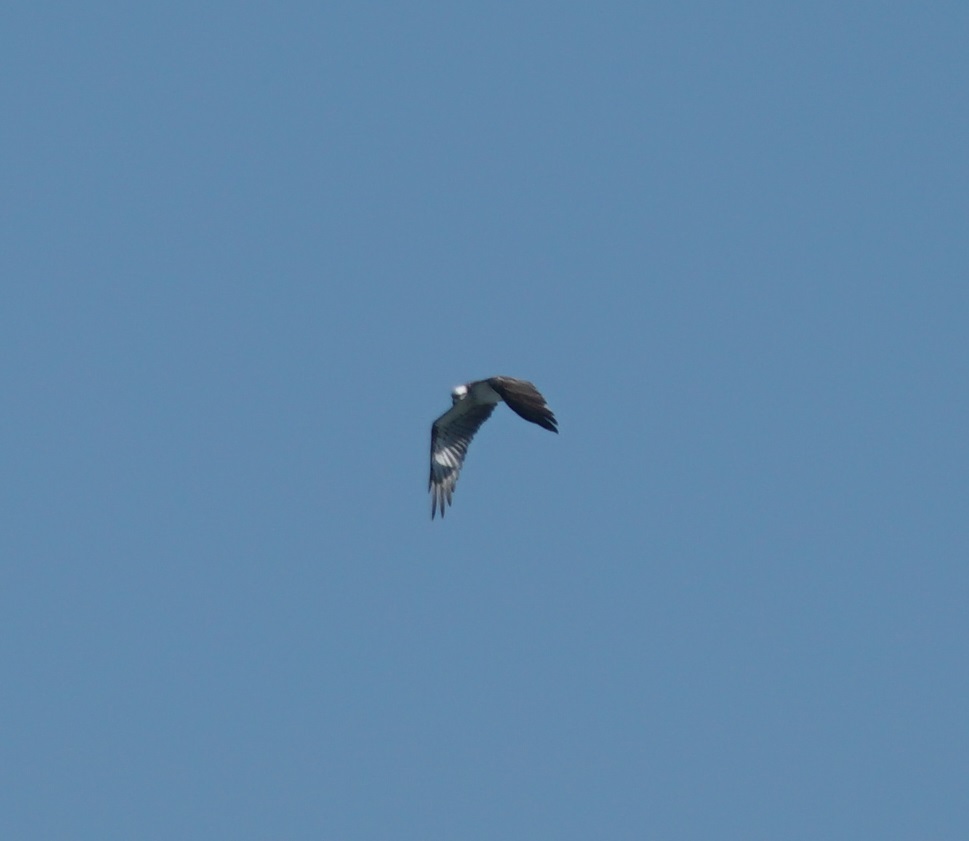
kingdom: Animalia
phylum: Chordata
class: Aves
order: Accipitriformes
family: Pandionidae
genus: Pandion
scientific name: Pandion haliaetus
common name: Osprey
